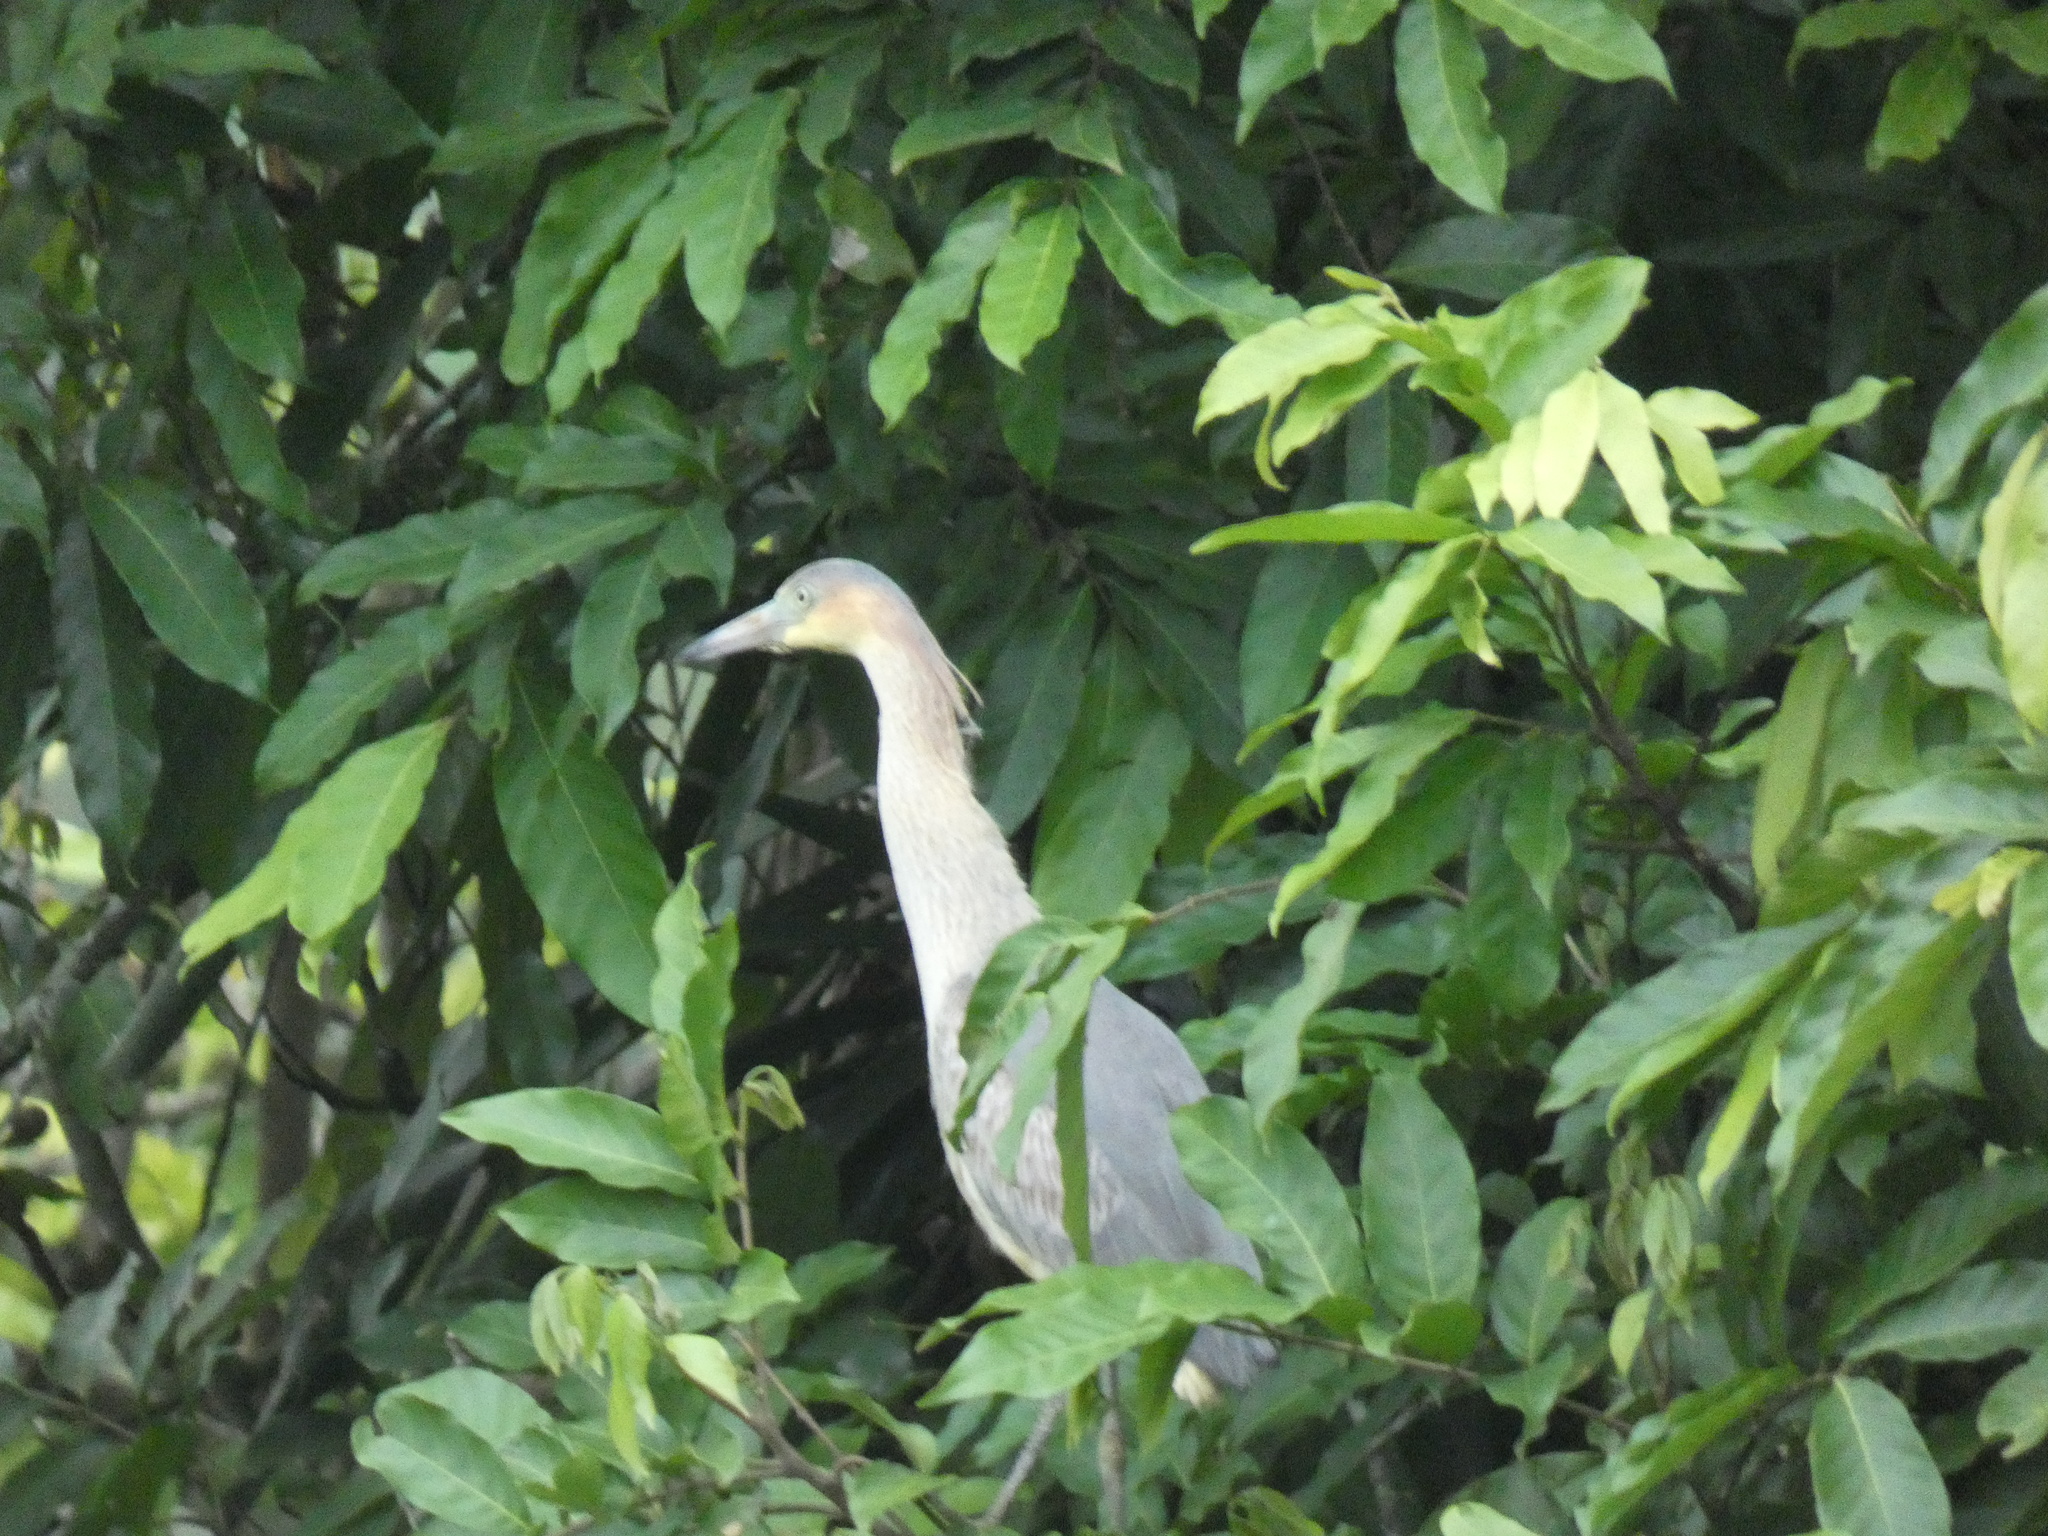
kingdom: Animalia
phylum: Chordata
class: Aves
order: Pelecaniformes
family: Ardeidae
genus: Syrigma
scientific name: Syrigma sibilatrix
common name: Whistling heron
